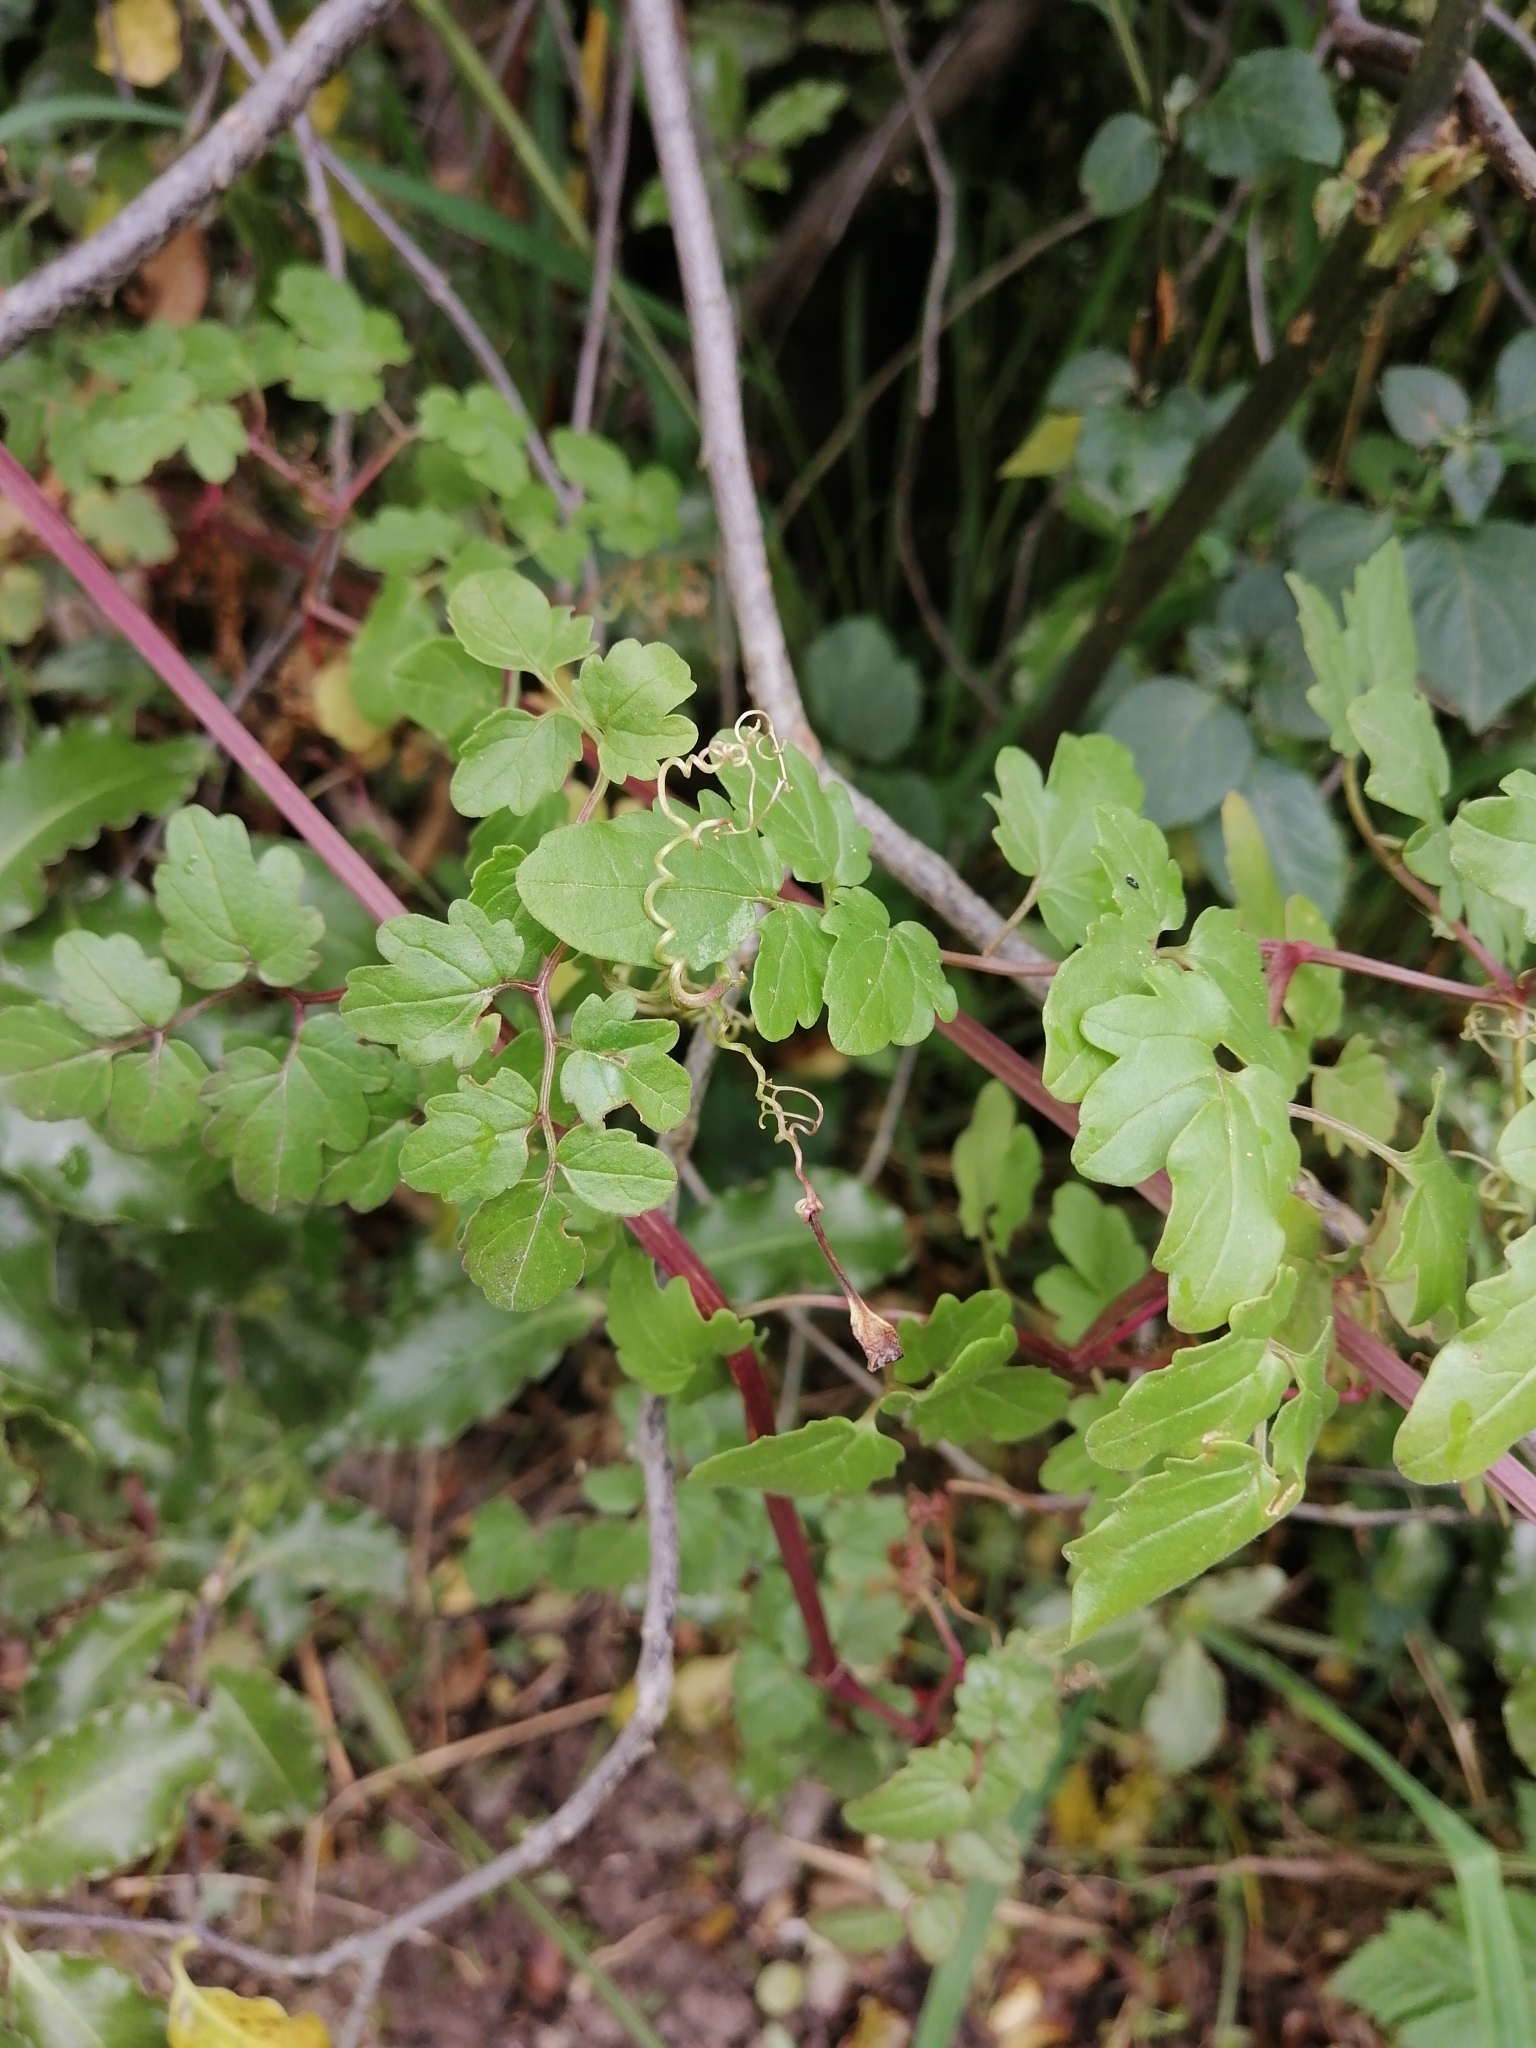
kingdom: Plantae
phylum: Tracheophyta
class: Magnoliopsida
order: Lamiales
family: Bignoniaceae
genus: Eccremocarpus
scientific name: Eccremocarpus scaber
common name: Chilean glory-flower
